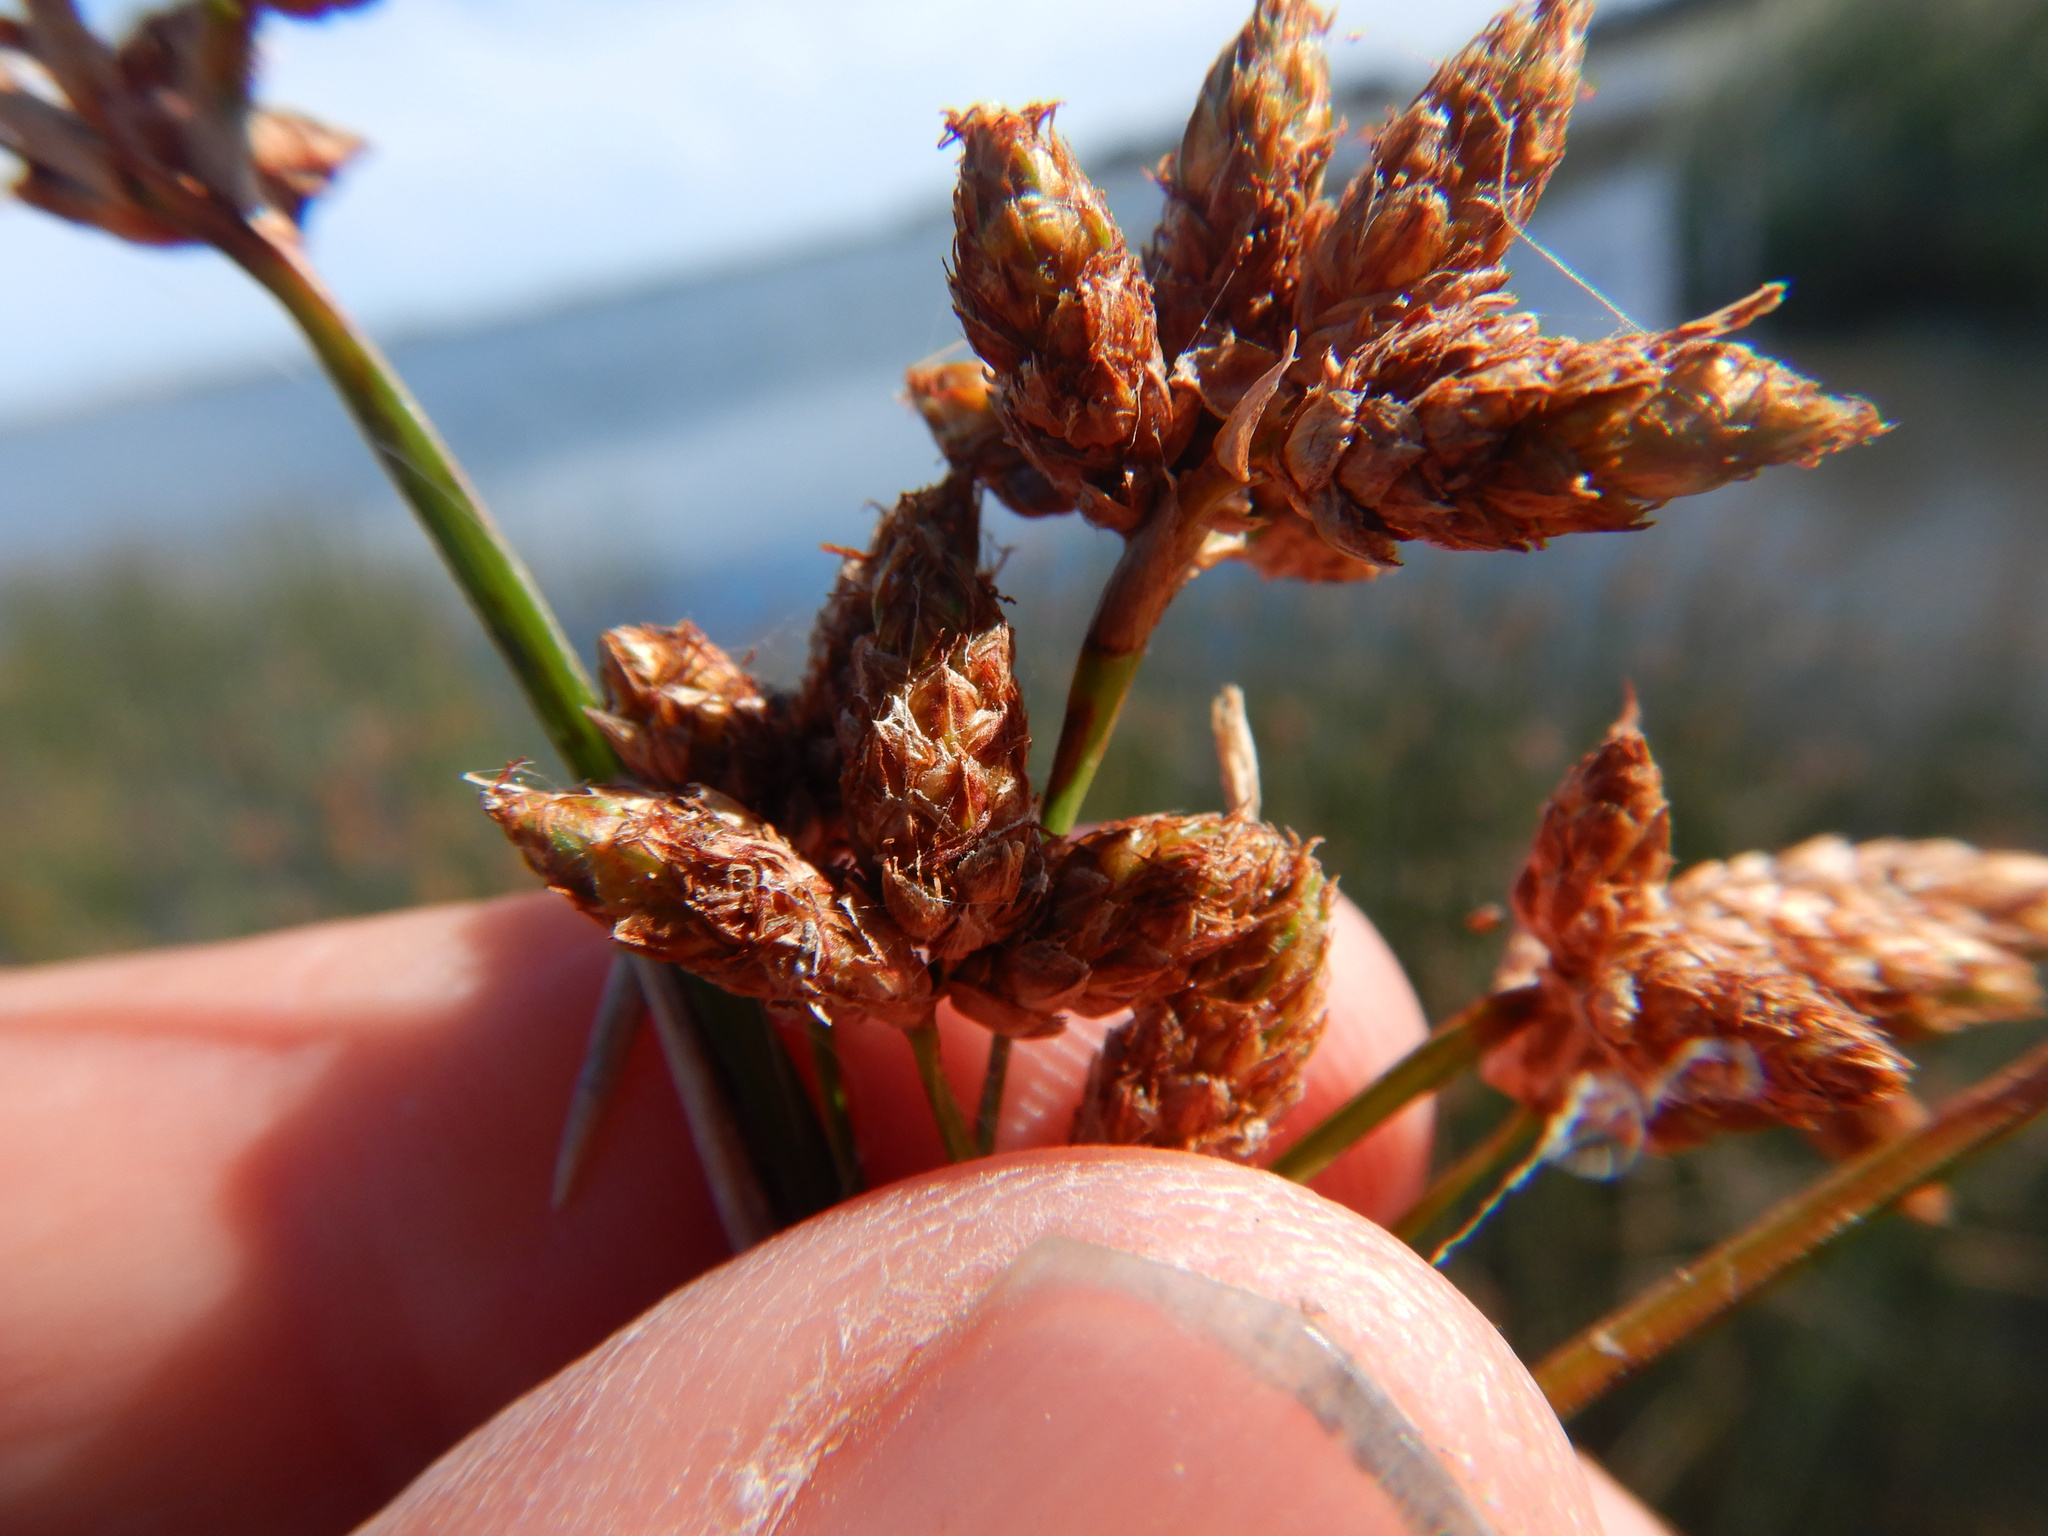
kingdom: Plantae
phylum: Tracheophyta
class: Liliopsida
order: Poales
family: Cyperaceae
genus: Schoenoplectus
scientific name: Schoenoplectus tabernaemontani
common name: Grey club-rush
